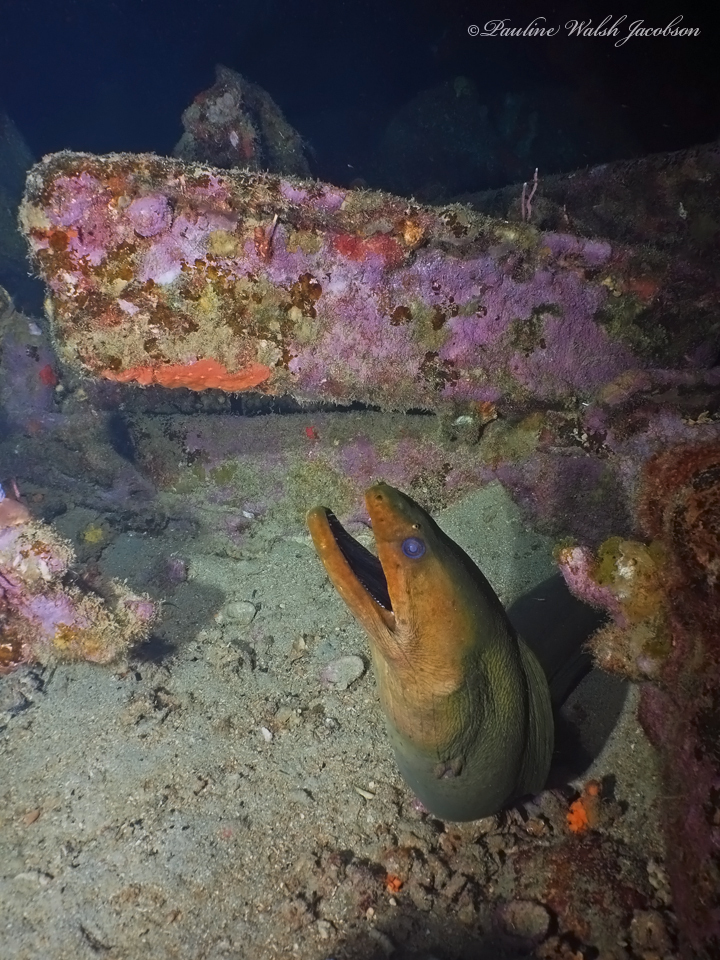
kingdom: Animalia
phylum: Chordata
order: Anguilliformes
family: Muraenidae
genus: Gymnothorax
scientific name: Gymnothorax funebris
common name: Green moray
